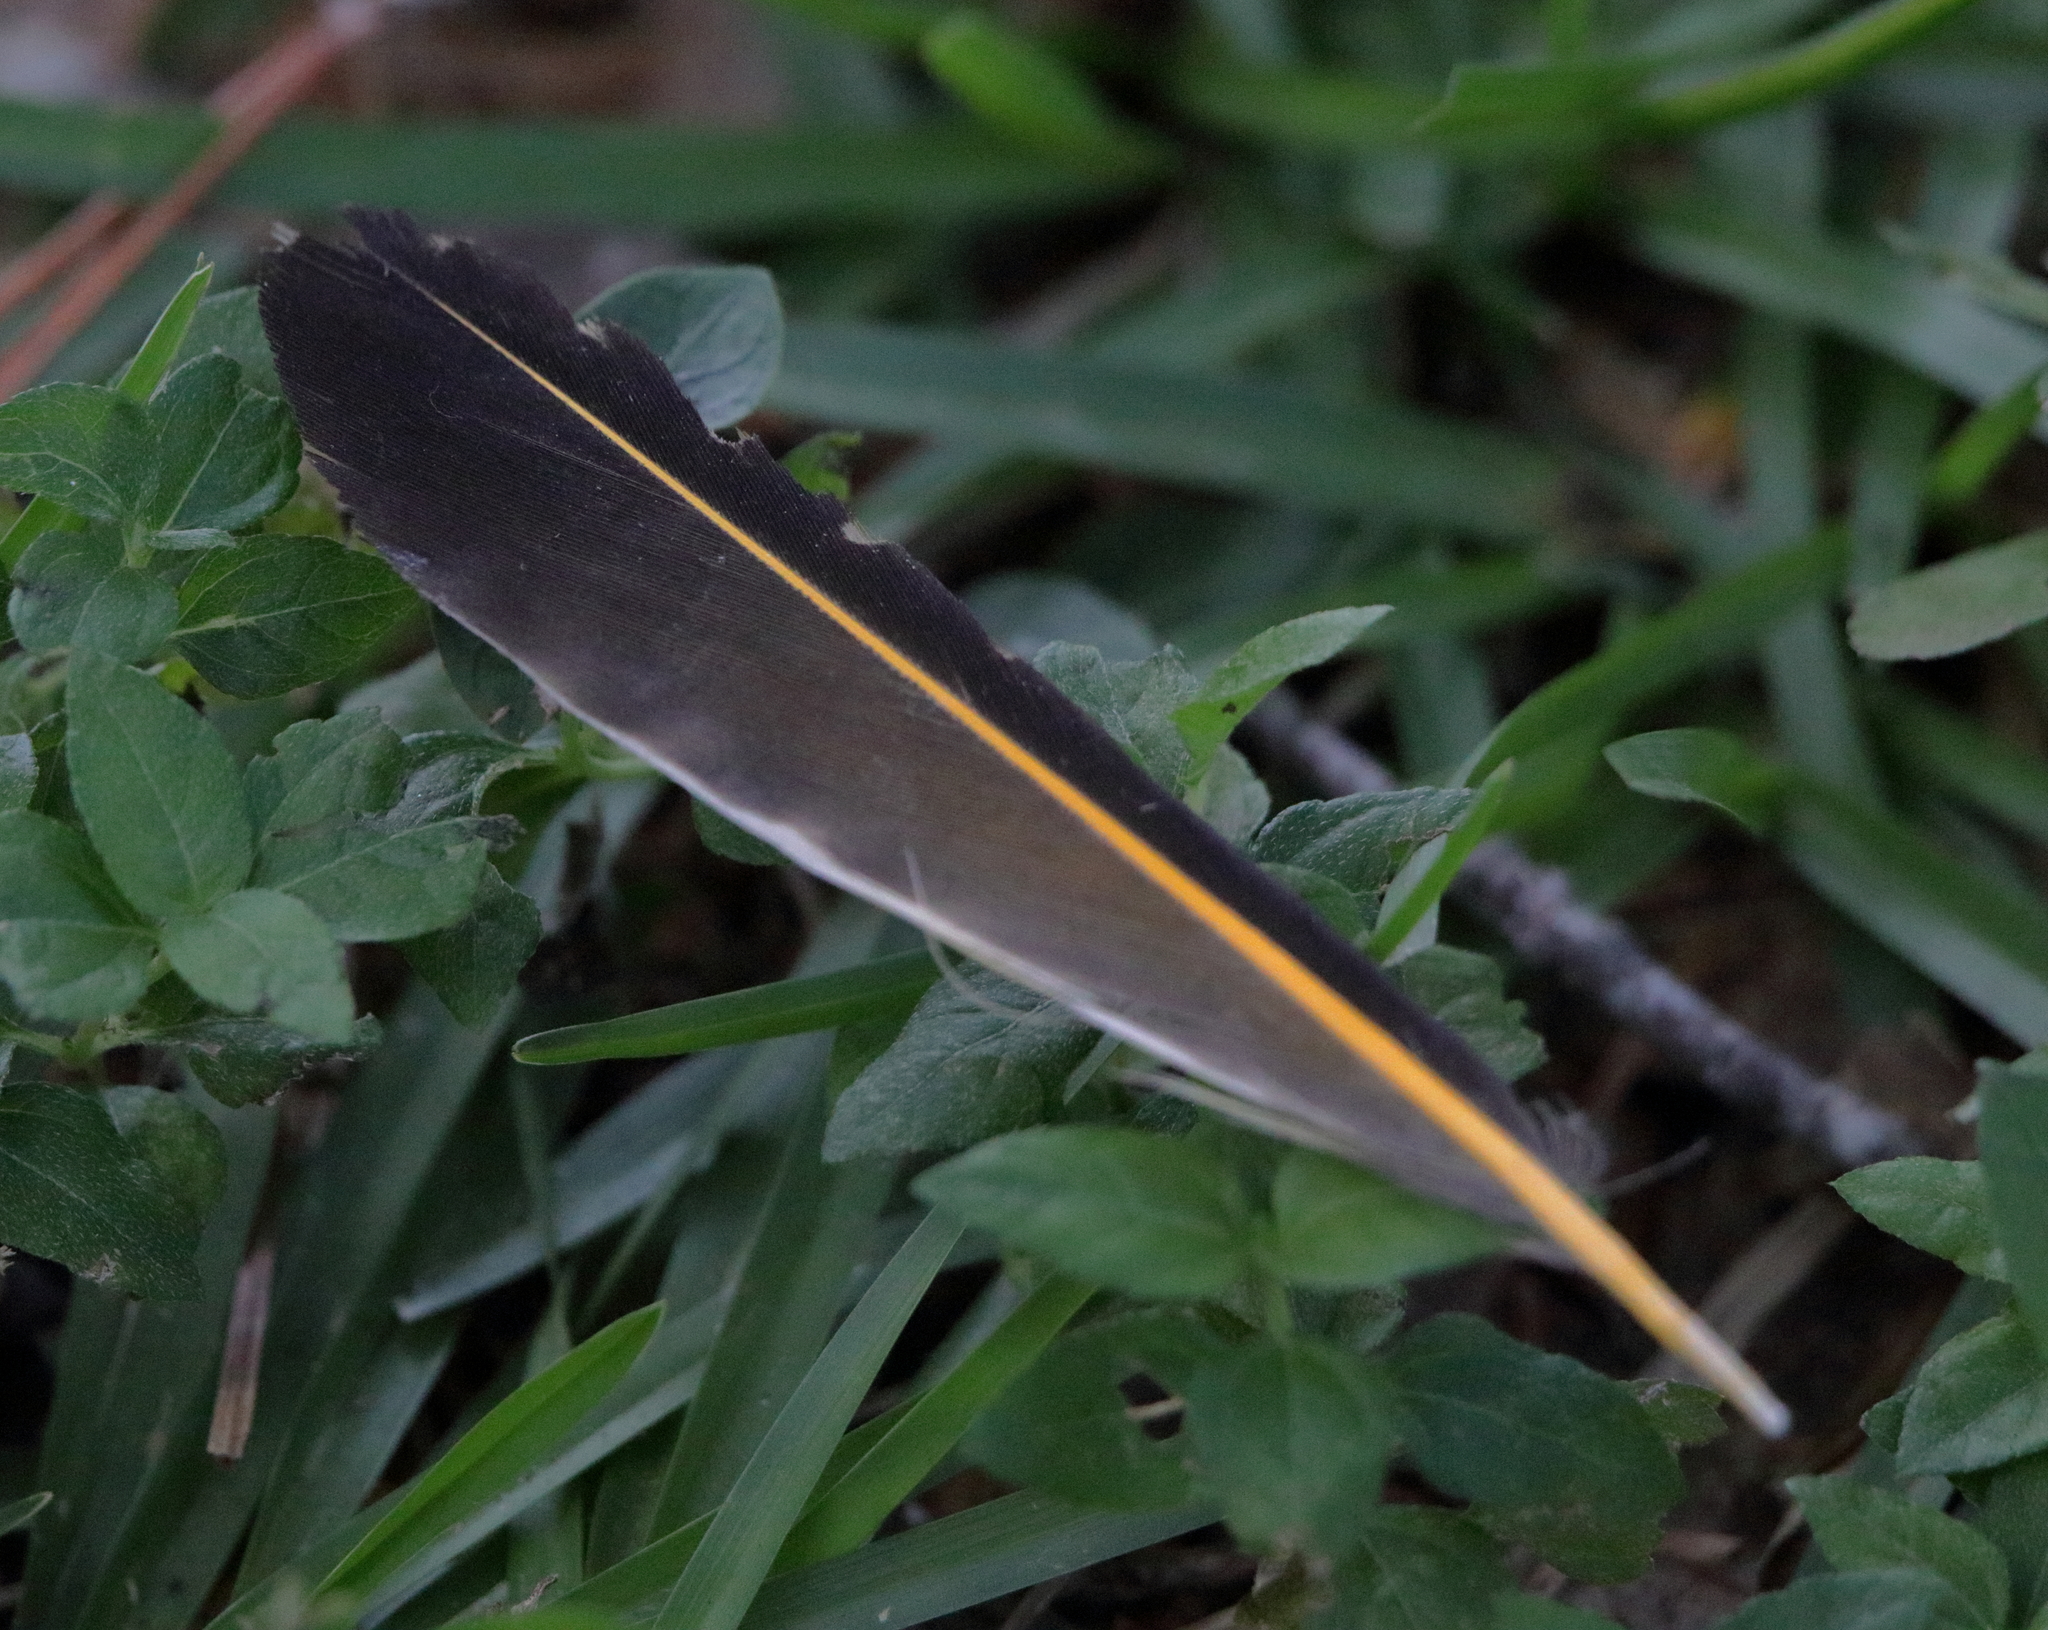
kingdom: Animalia
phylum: Chordata
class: Aves
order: Piciformes
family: Picidae
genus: Colaptes
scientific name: Colaptes auratus
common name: Northern flicker
